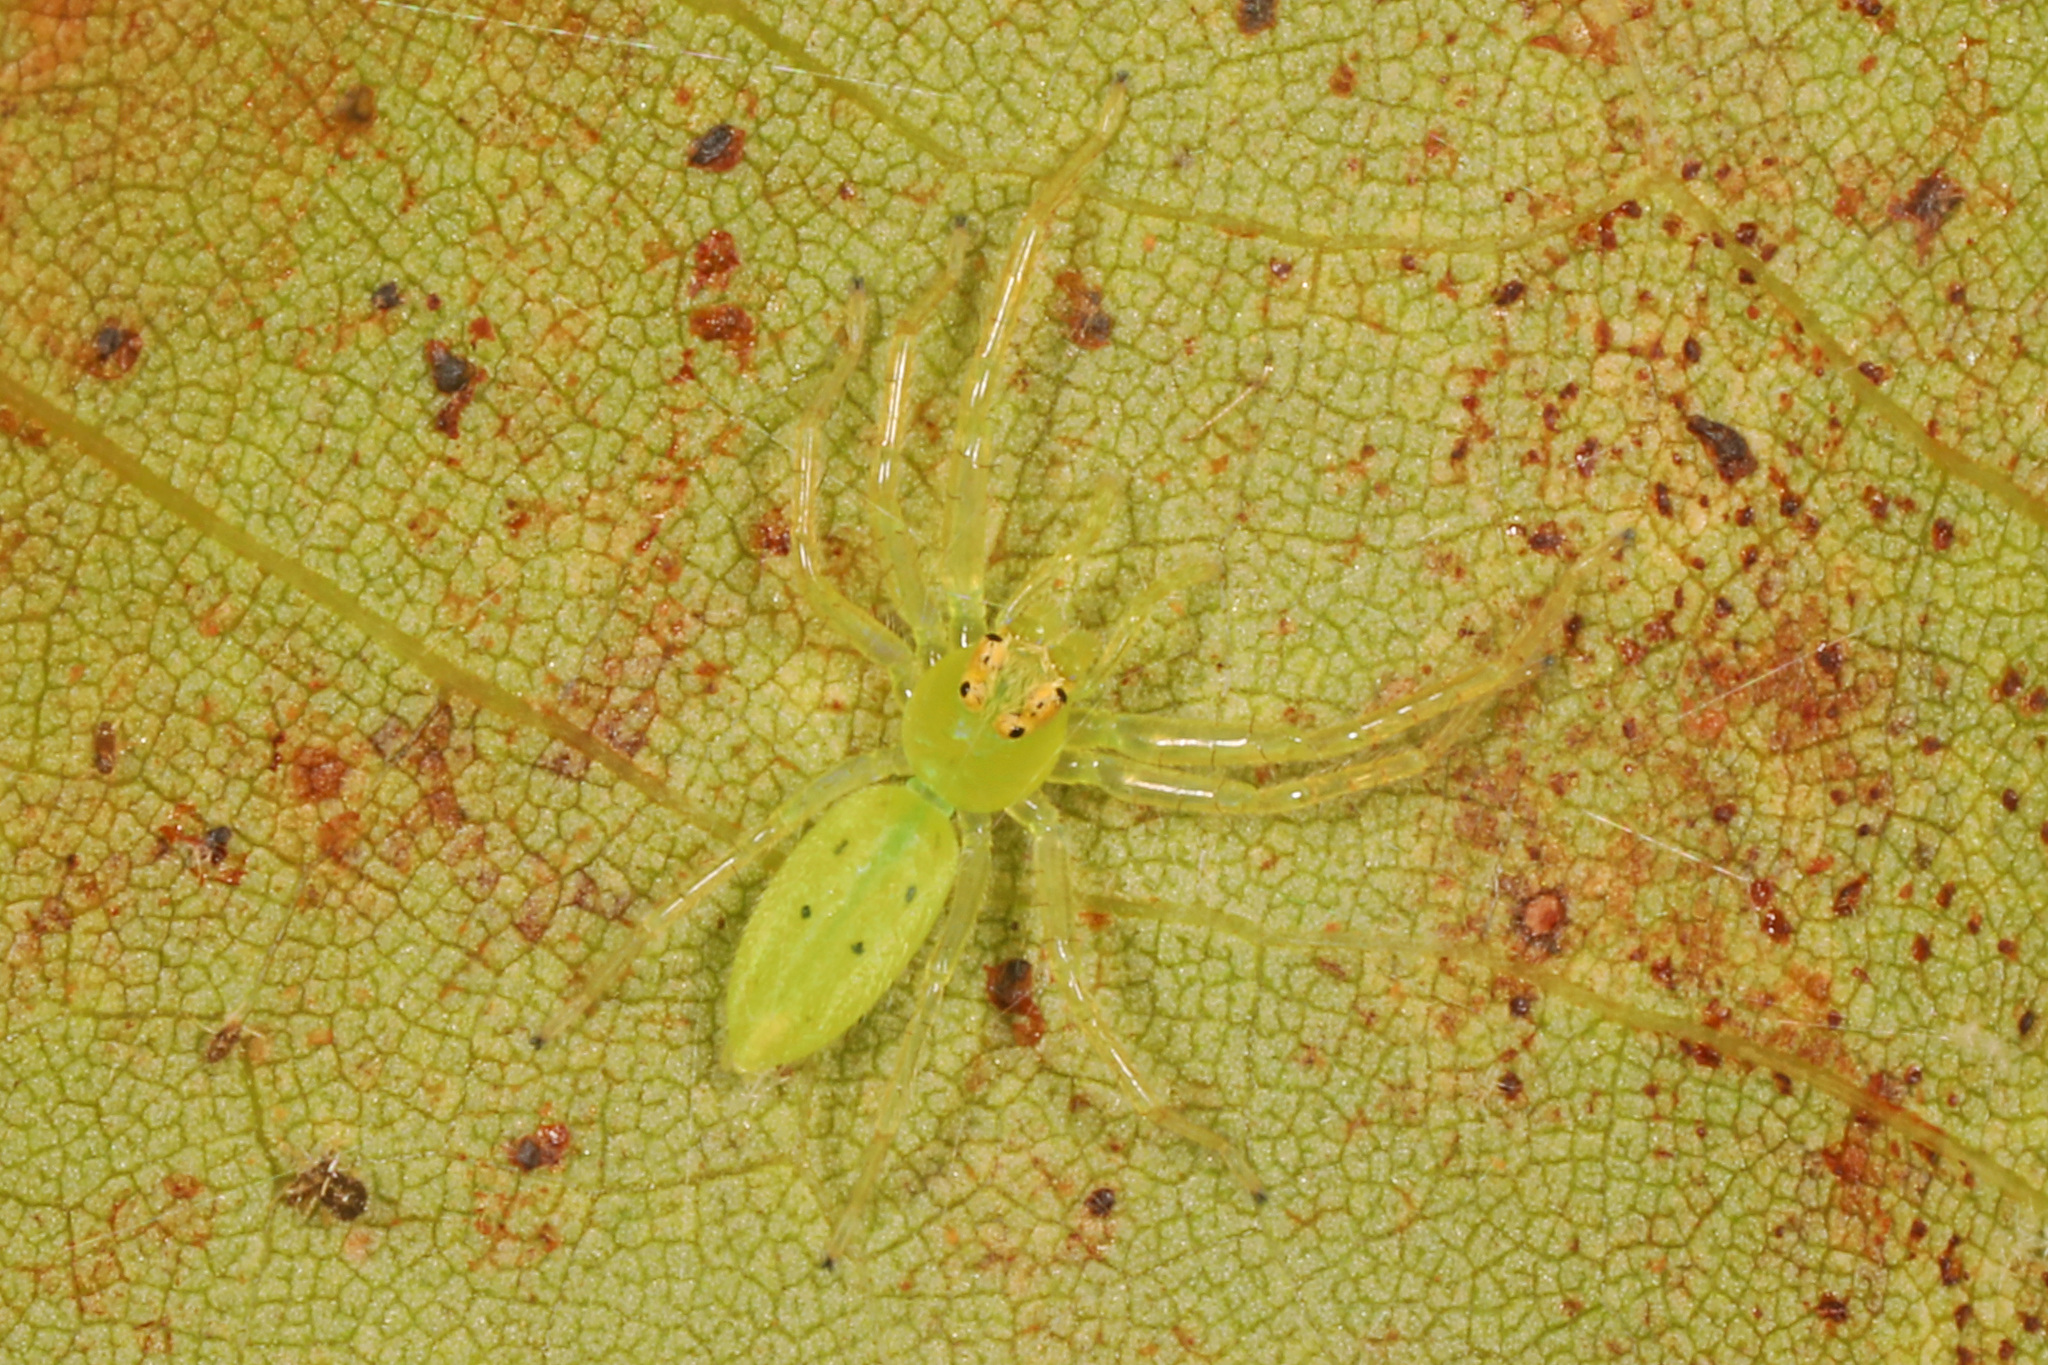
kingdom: Animalia
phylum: Arthropoda
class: Arachnida
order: Araneae
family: Salticidae
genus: Lyssomanes
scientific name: Lyssomanes viridis
